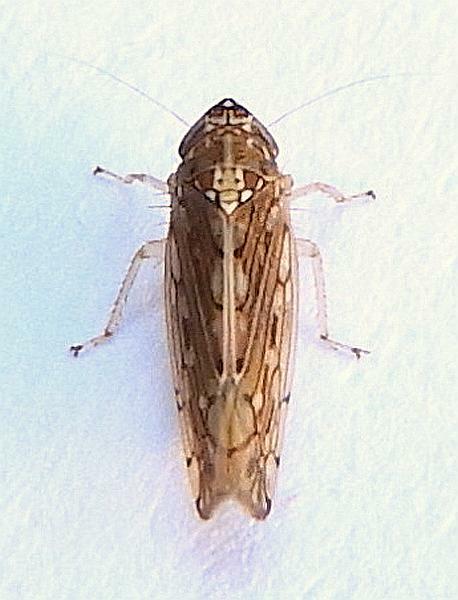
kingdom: Animalia
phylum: Arthropoda
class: Insecta
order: Hemiptera
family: Cicadellidae
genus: Osbornellus
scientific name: Osbornellus clarus
